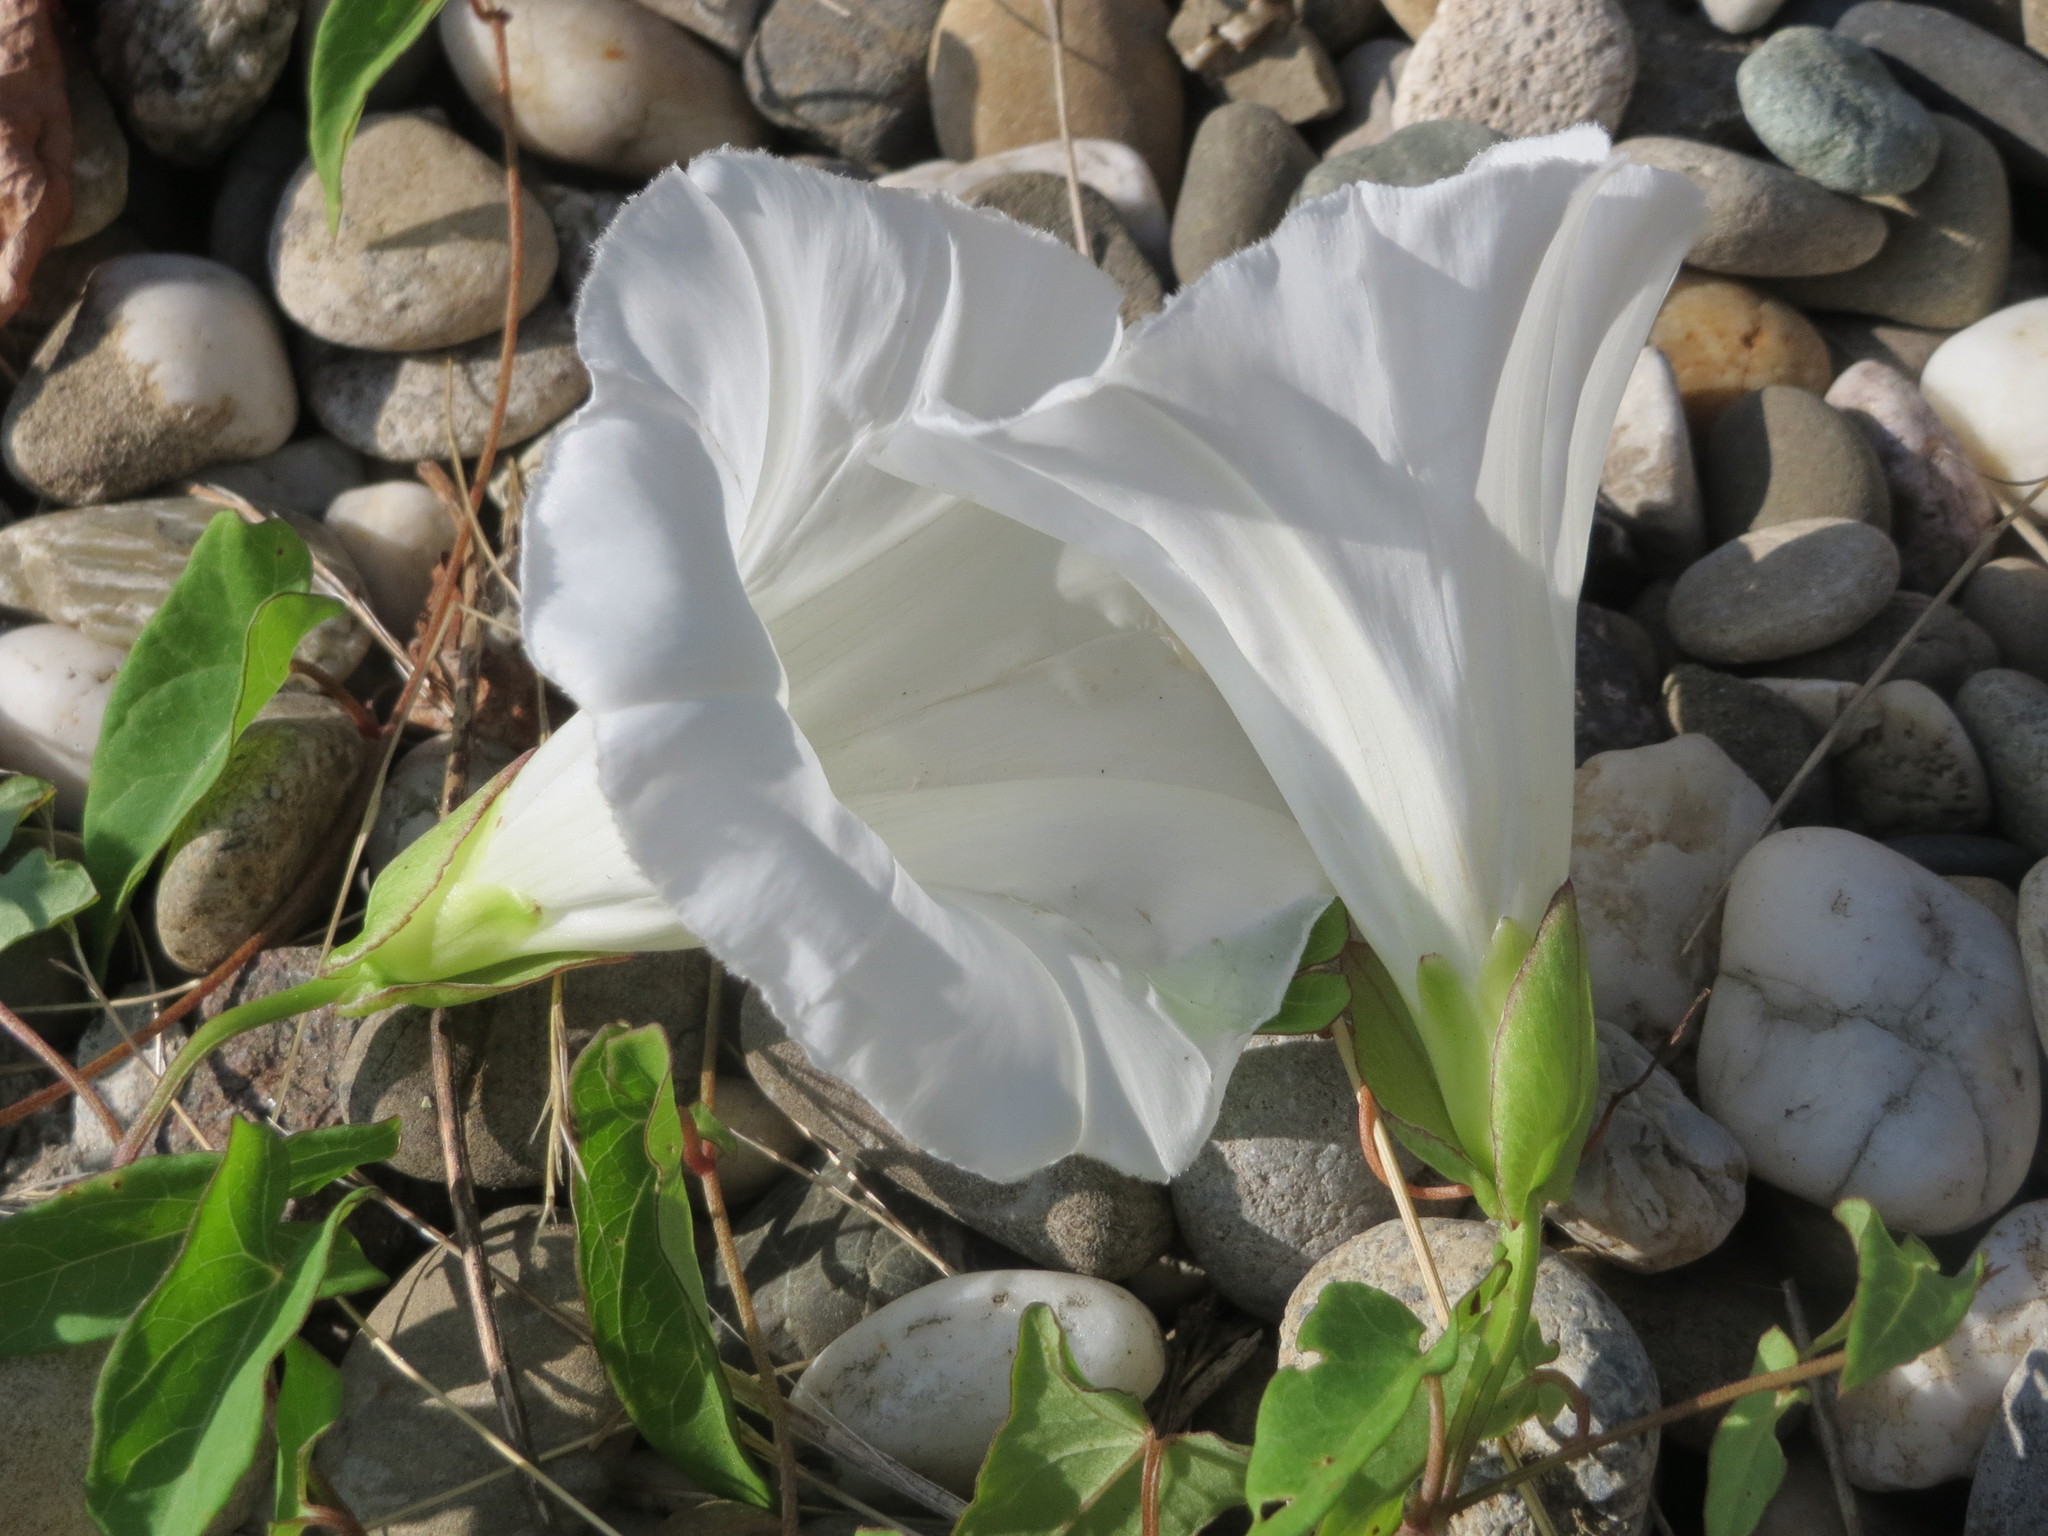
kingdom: Plantae
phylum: Tracheophyta
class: Magnoliopsida
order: Solanales
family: Convolvulaceae
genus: Calystegia
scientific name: Calystegia sepium
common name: Hedge bindweed
